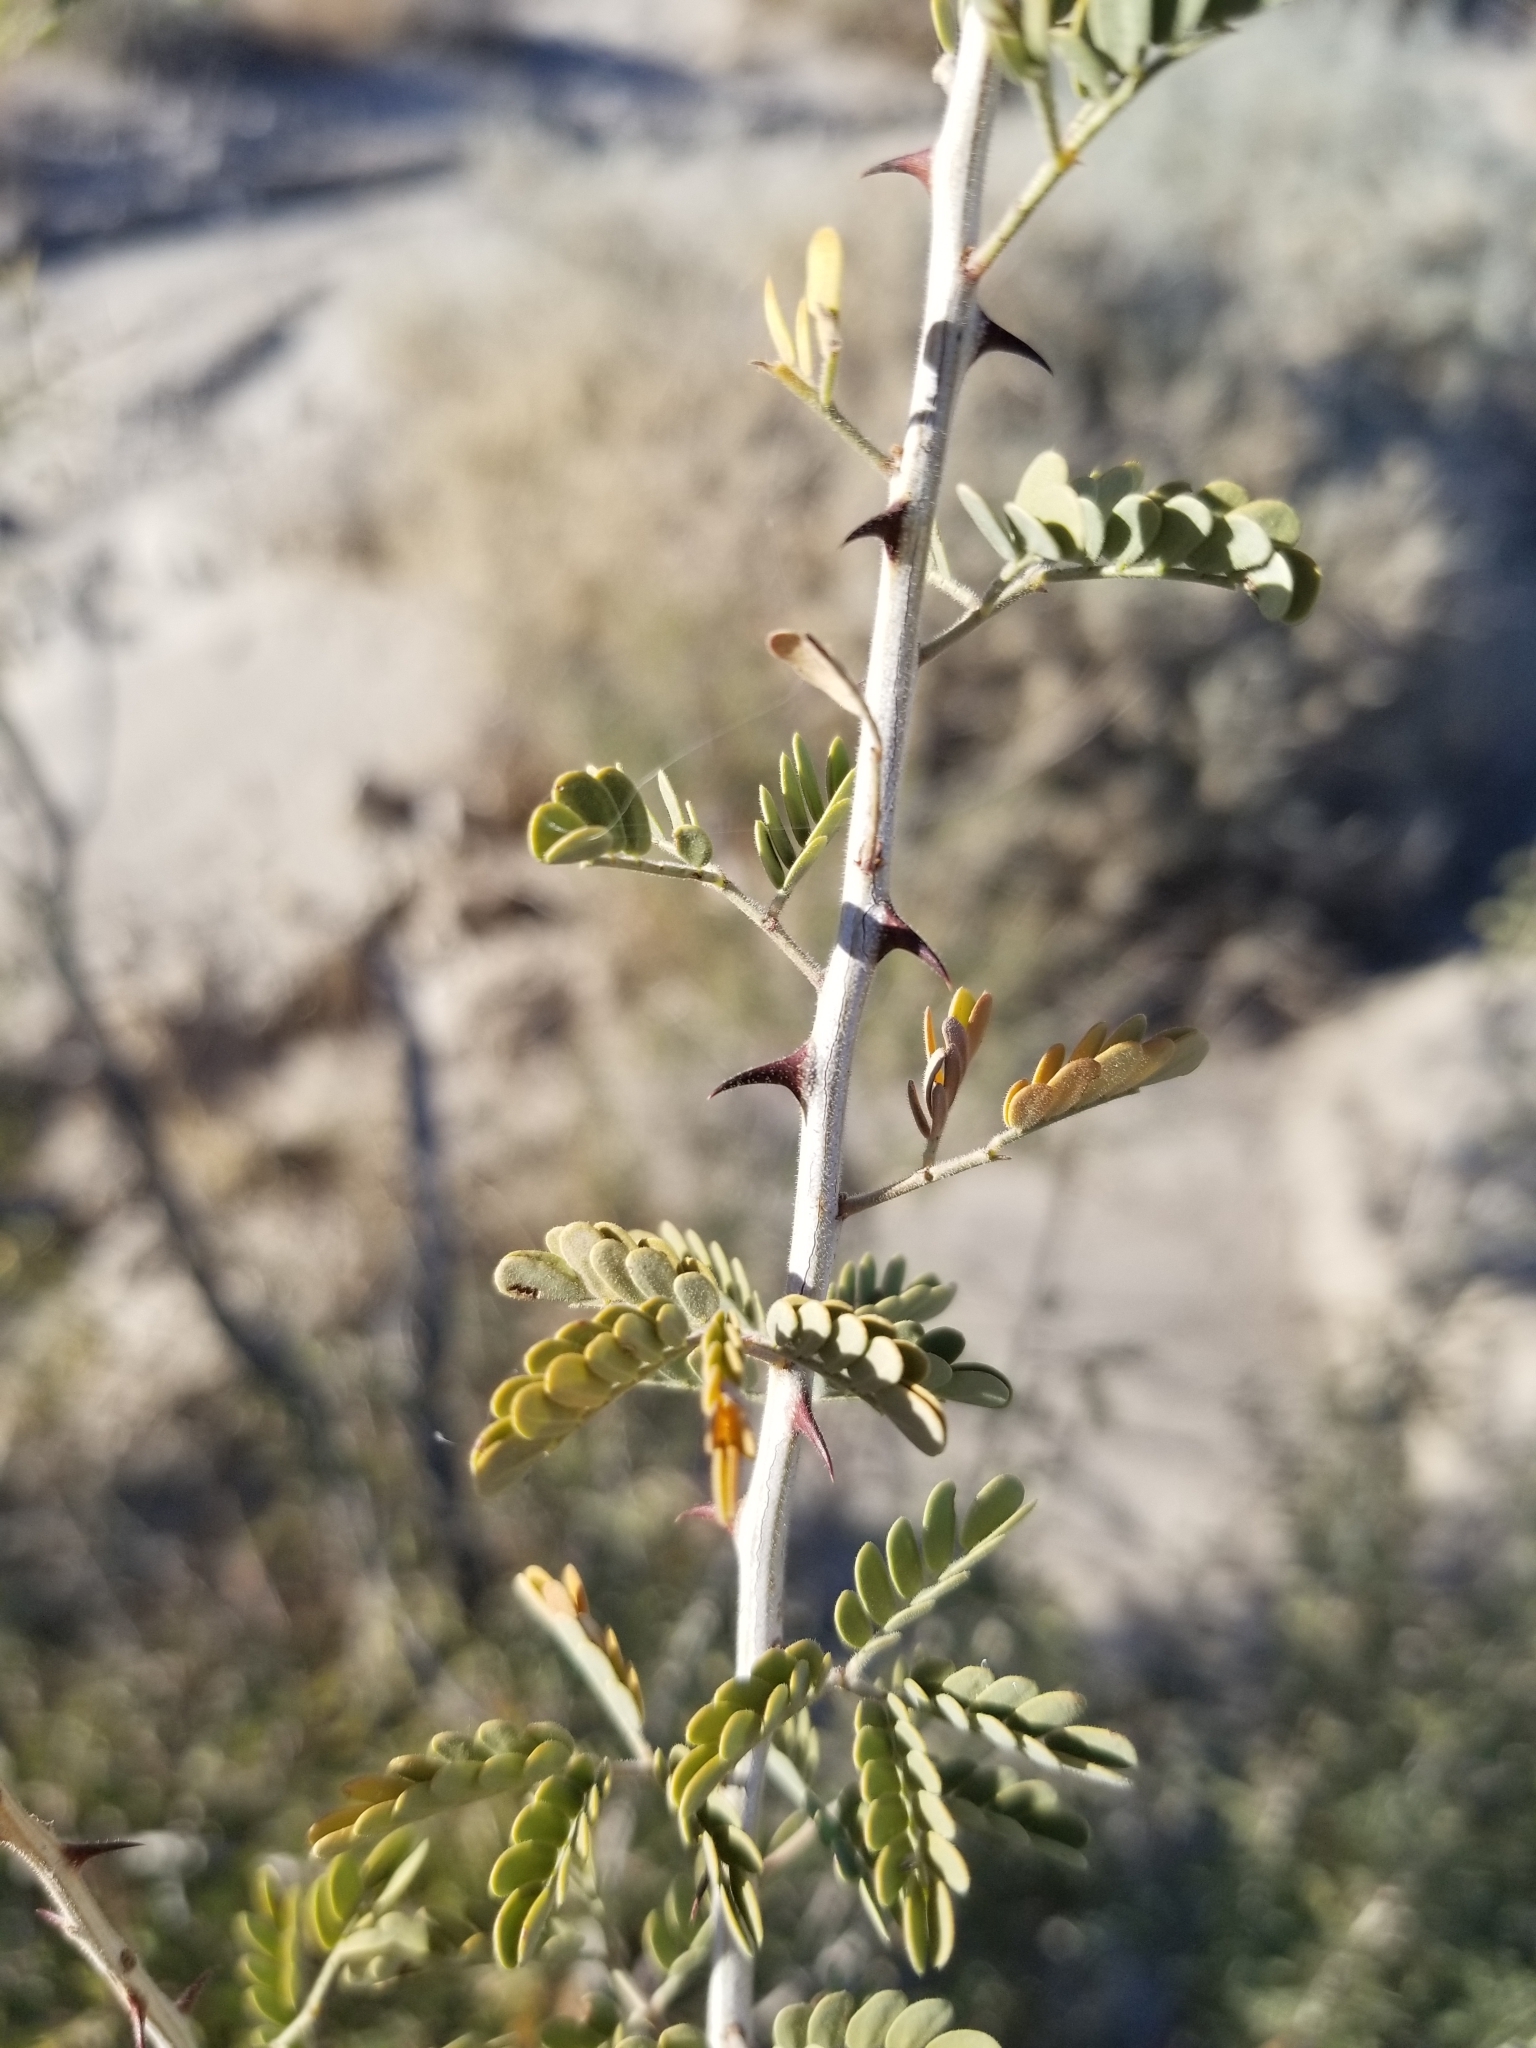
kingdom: Plantae
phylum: Tracheophyta
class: Magnoliopsida
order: Fabales
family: Fabaceae
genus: Senegalia
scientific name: Senegalia greggii
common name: Texas-mimosa
